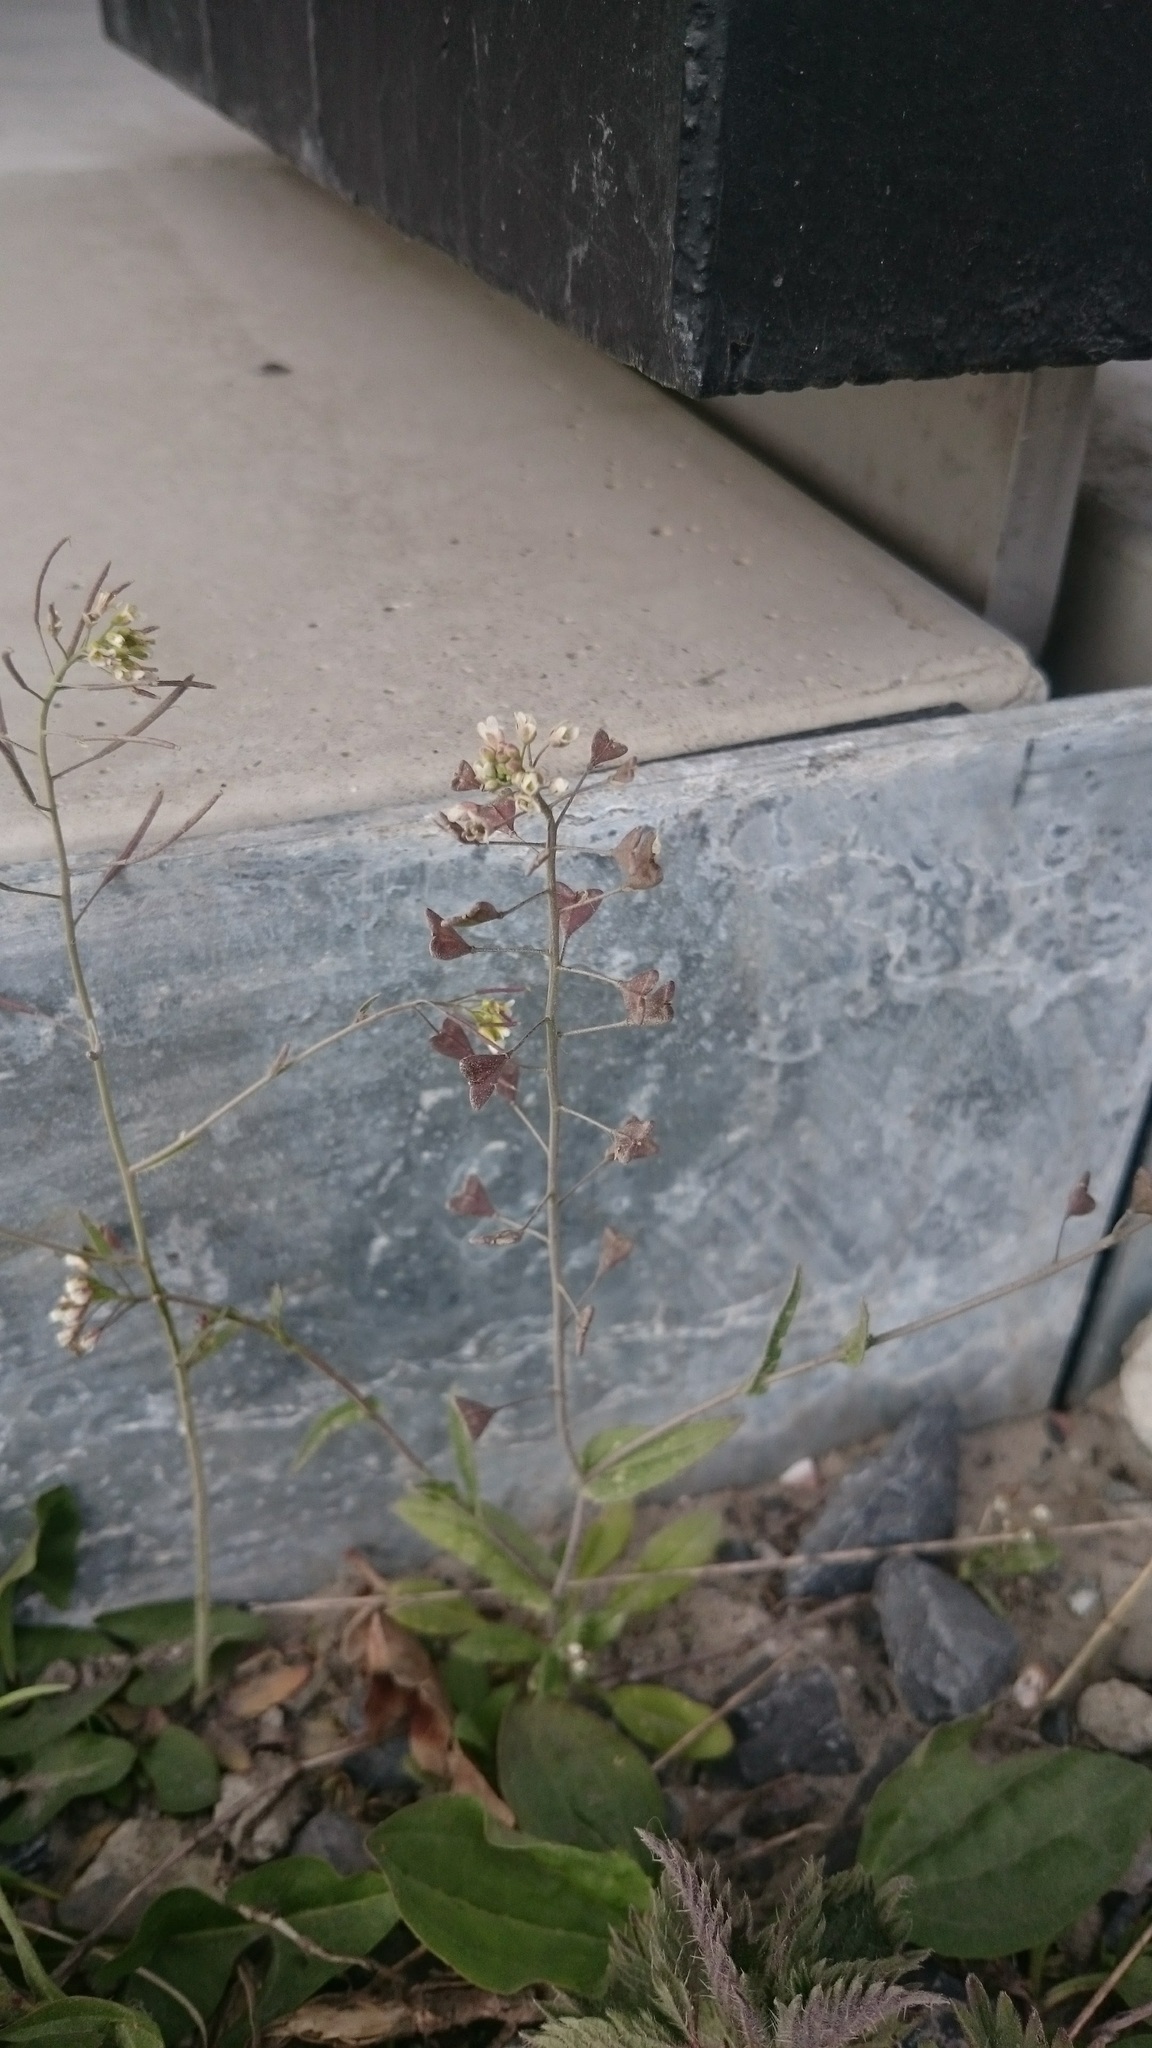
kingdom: Plantae
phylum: Tracheophyta
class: Magnoliopsida
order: Brassicales
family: Brassicaceae
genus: Capsella
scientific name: Capsella bursa-pastoris
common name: Shepherd's purse
